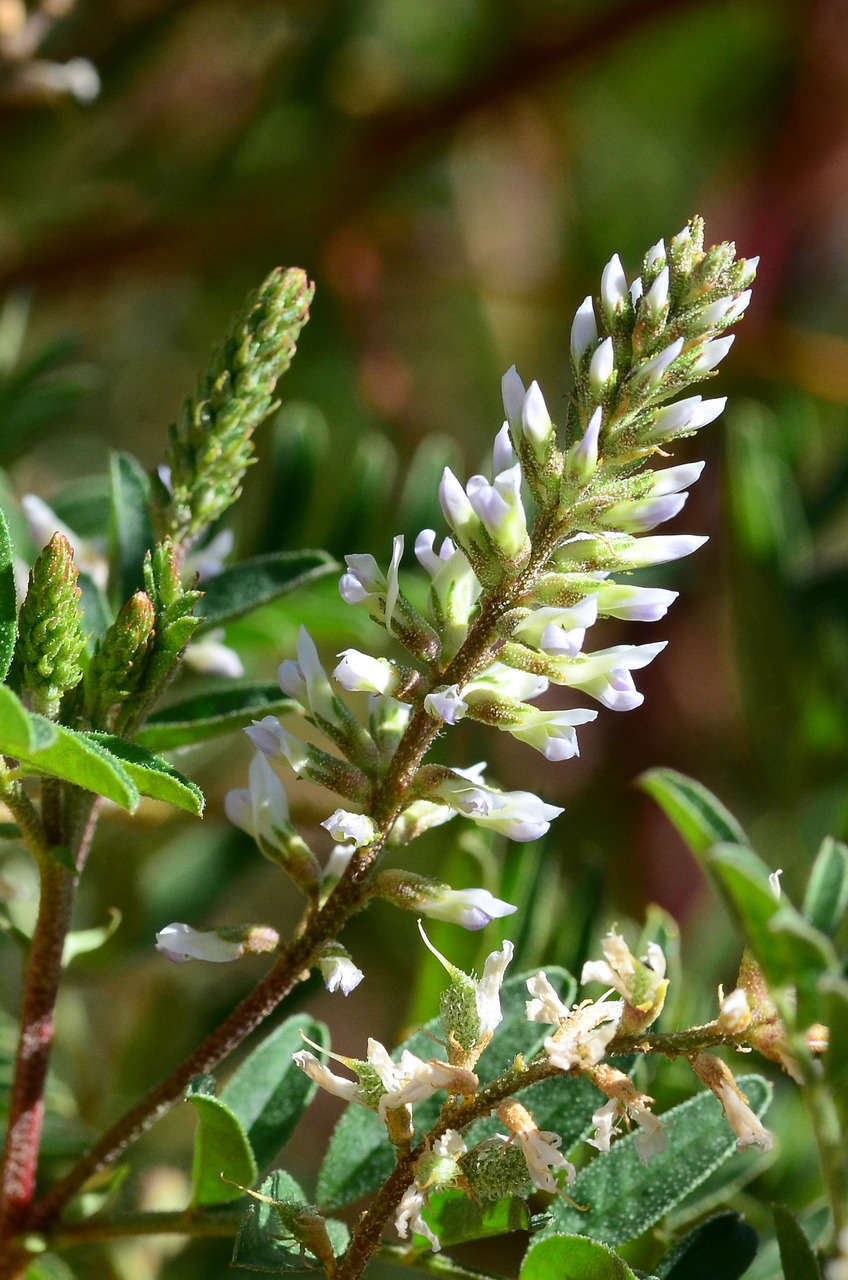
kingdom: Plantae
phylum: Tracheophyta
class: Magnoliopsida
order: Fabales
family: Fabaceae
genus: Glycyrrhiza
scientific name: Glycyrrhiza acanthocarpa
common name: Southern liquorice
